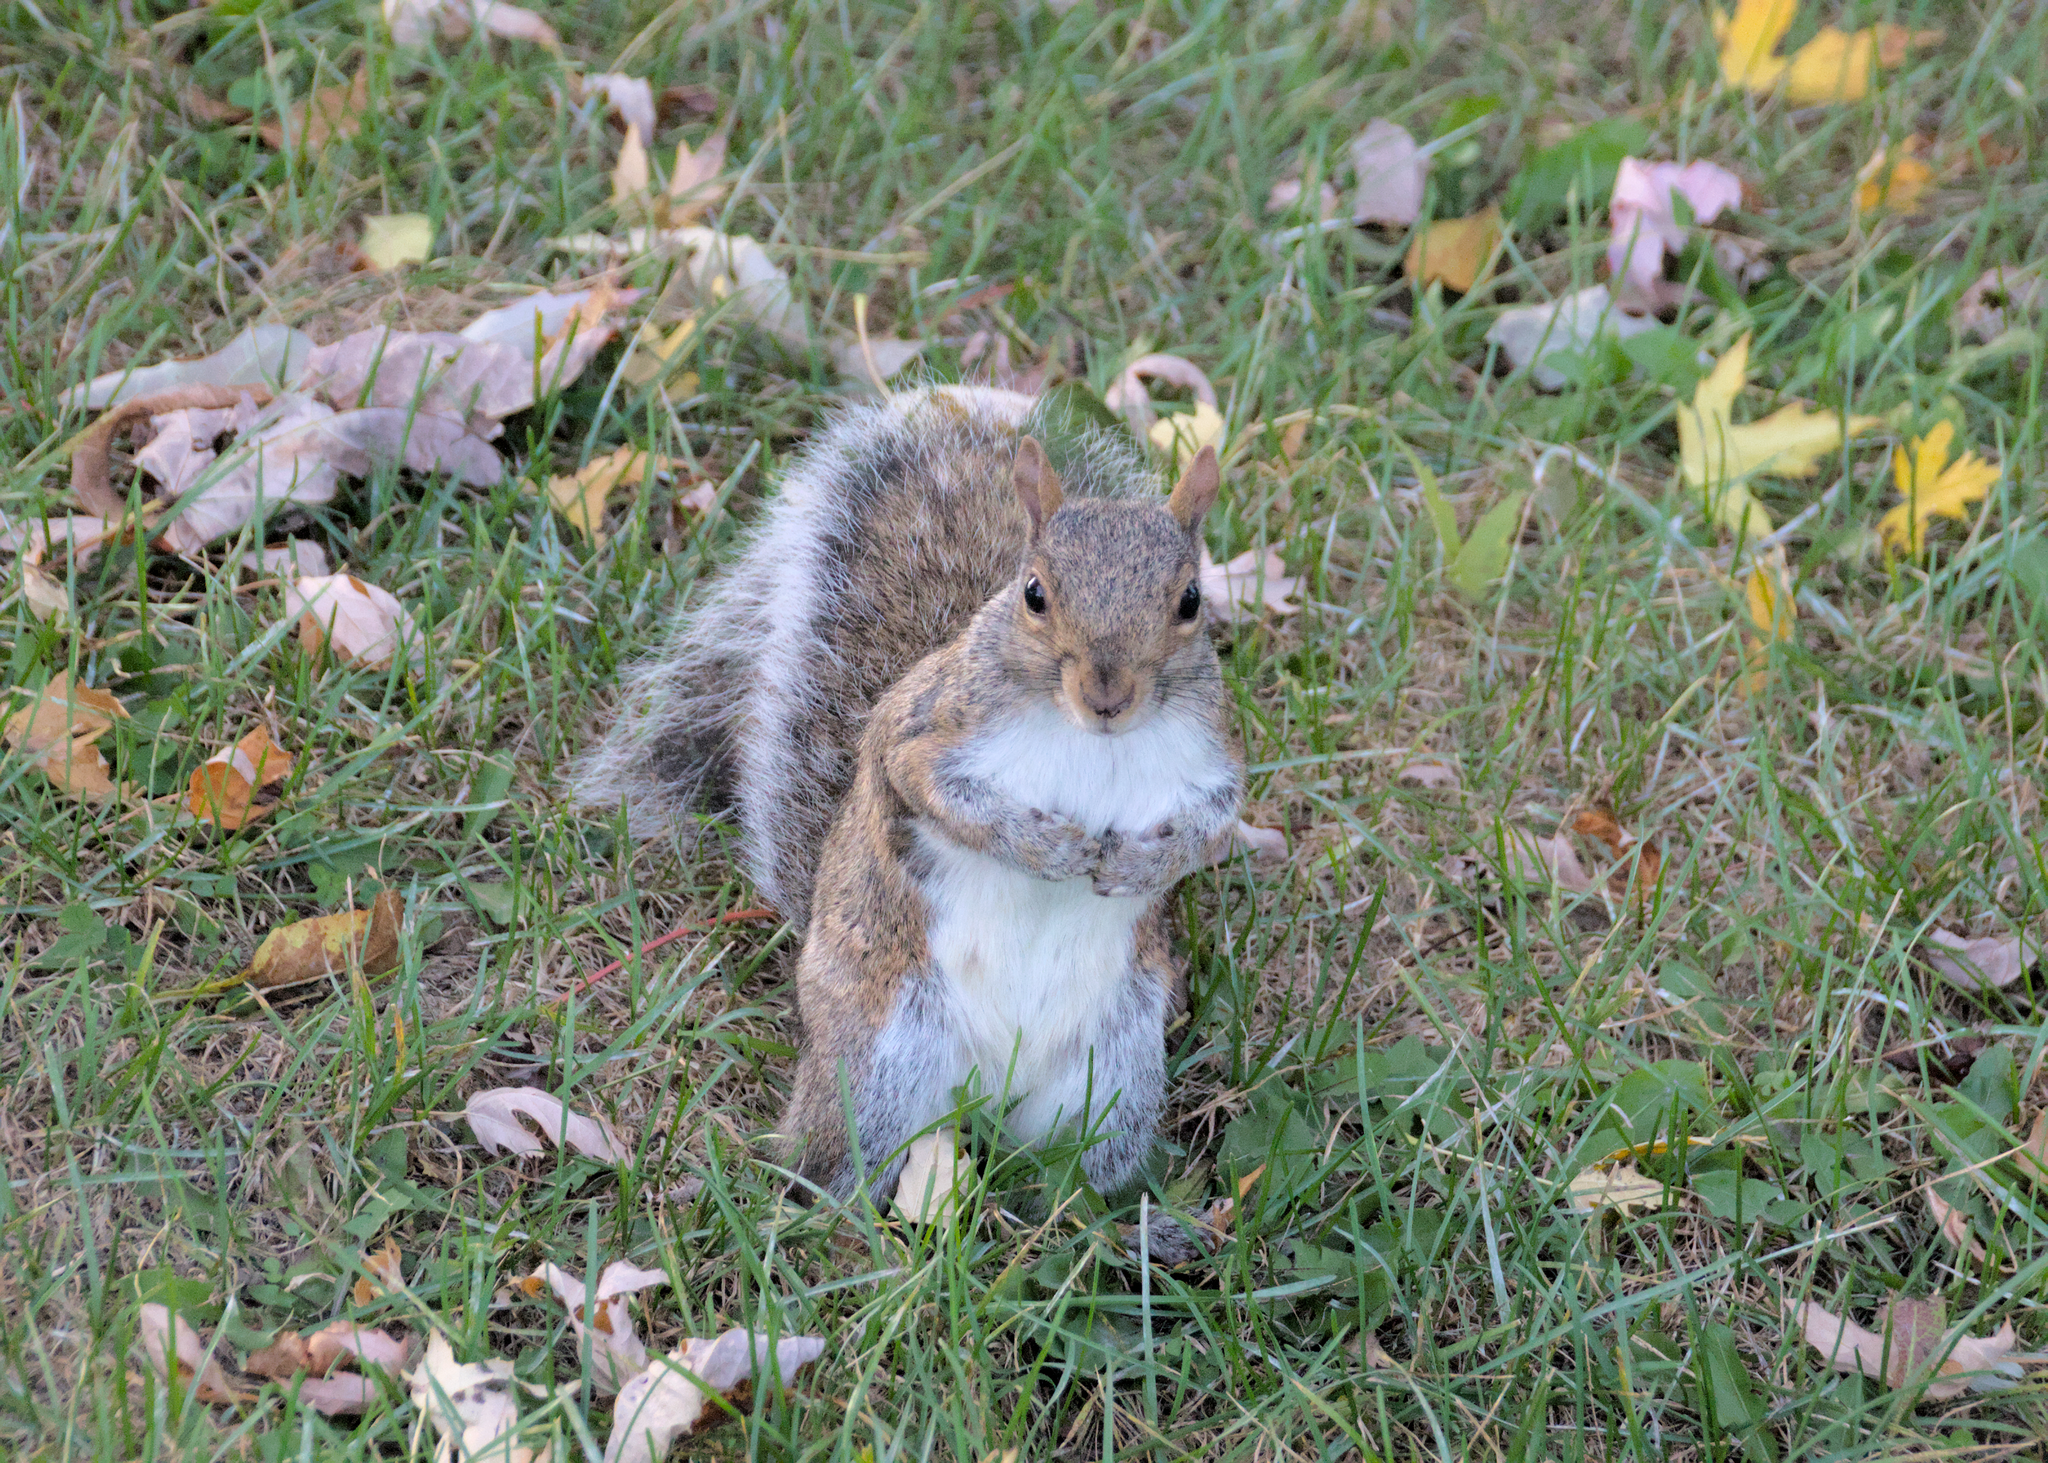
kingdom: Animalia
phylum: Chordata
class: Mammalia
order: Rodentia
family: Sciuridae
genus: Sciurus
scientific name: Sciurus carolinensis
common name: Eastern gray squirrel
